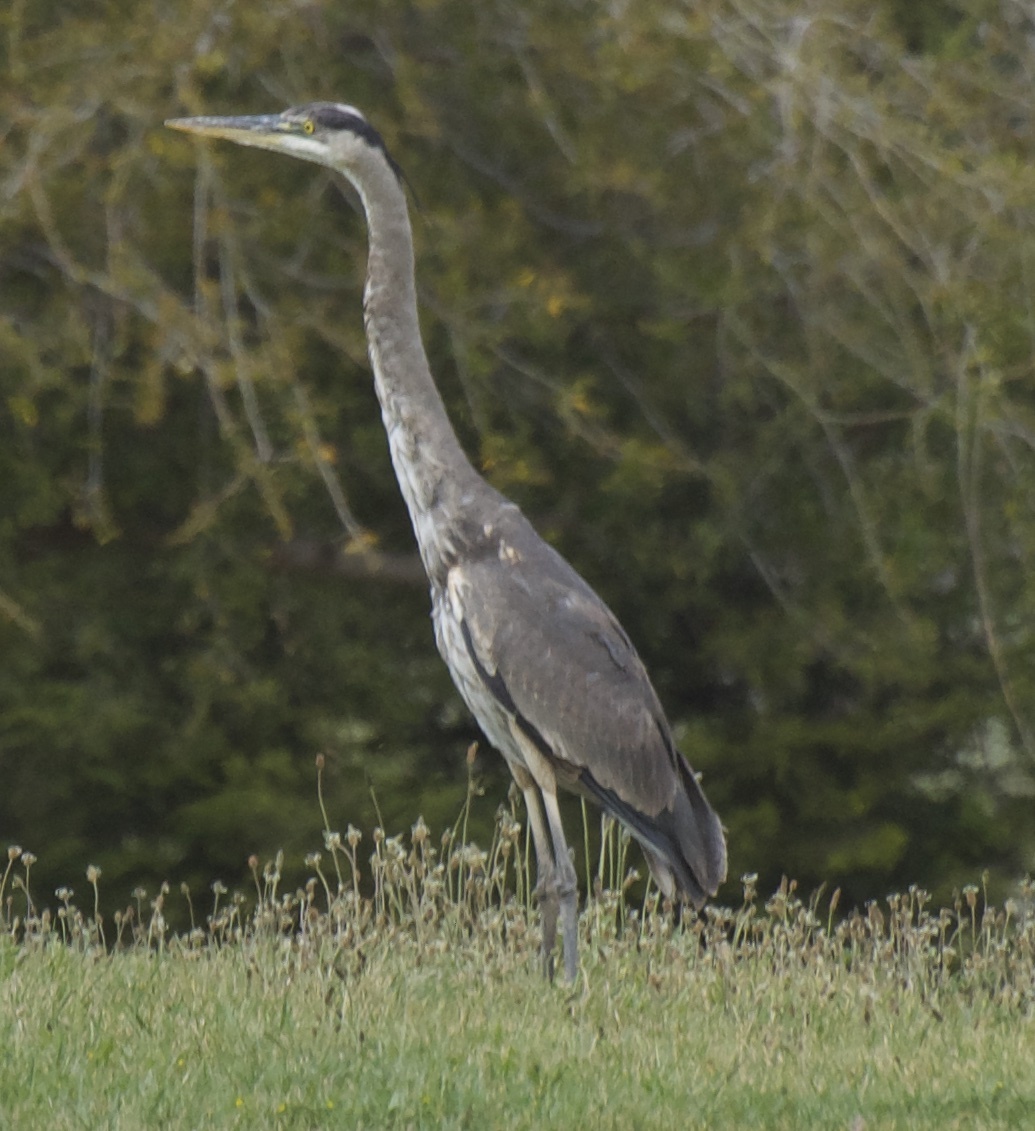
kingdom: Animalia
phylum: Chordata
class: Aves
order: Pelecaniformes
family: Ardeidae
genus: Ardea
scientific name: Ardea herodias
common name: Great blue heron
